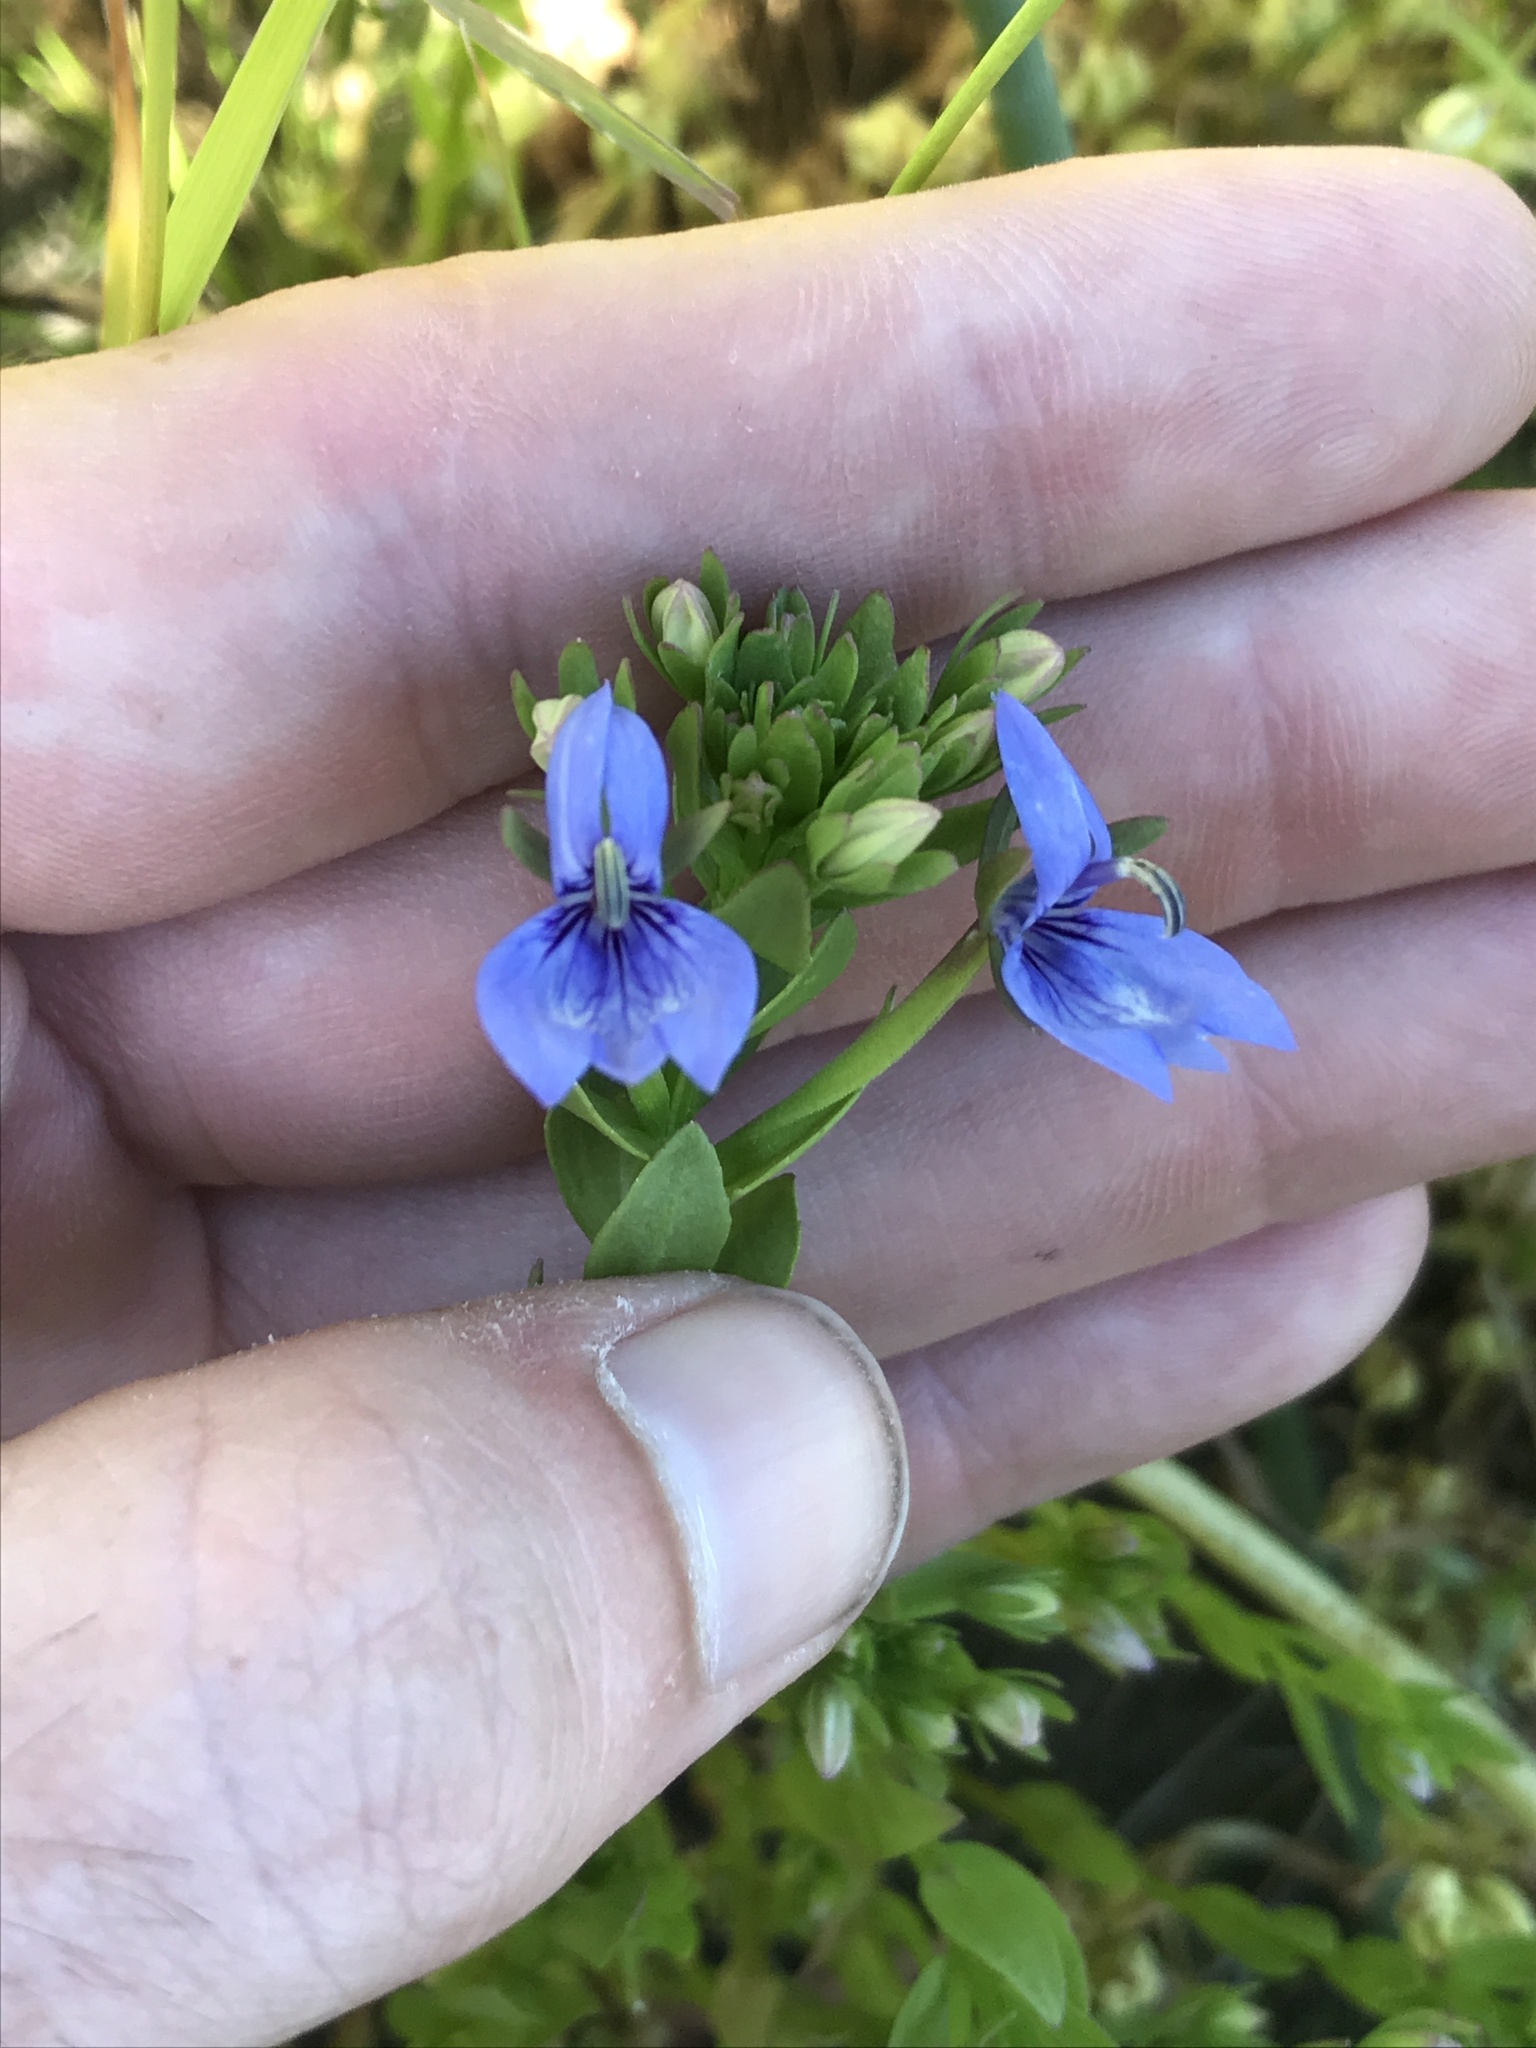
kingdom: Plantae
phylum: Tracheophyta
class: Magnoliopsida
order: Asterales
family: Campanulaceae
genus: Downingia
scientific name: Downingia elegans
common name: Californian lobelia
